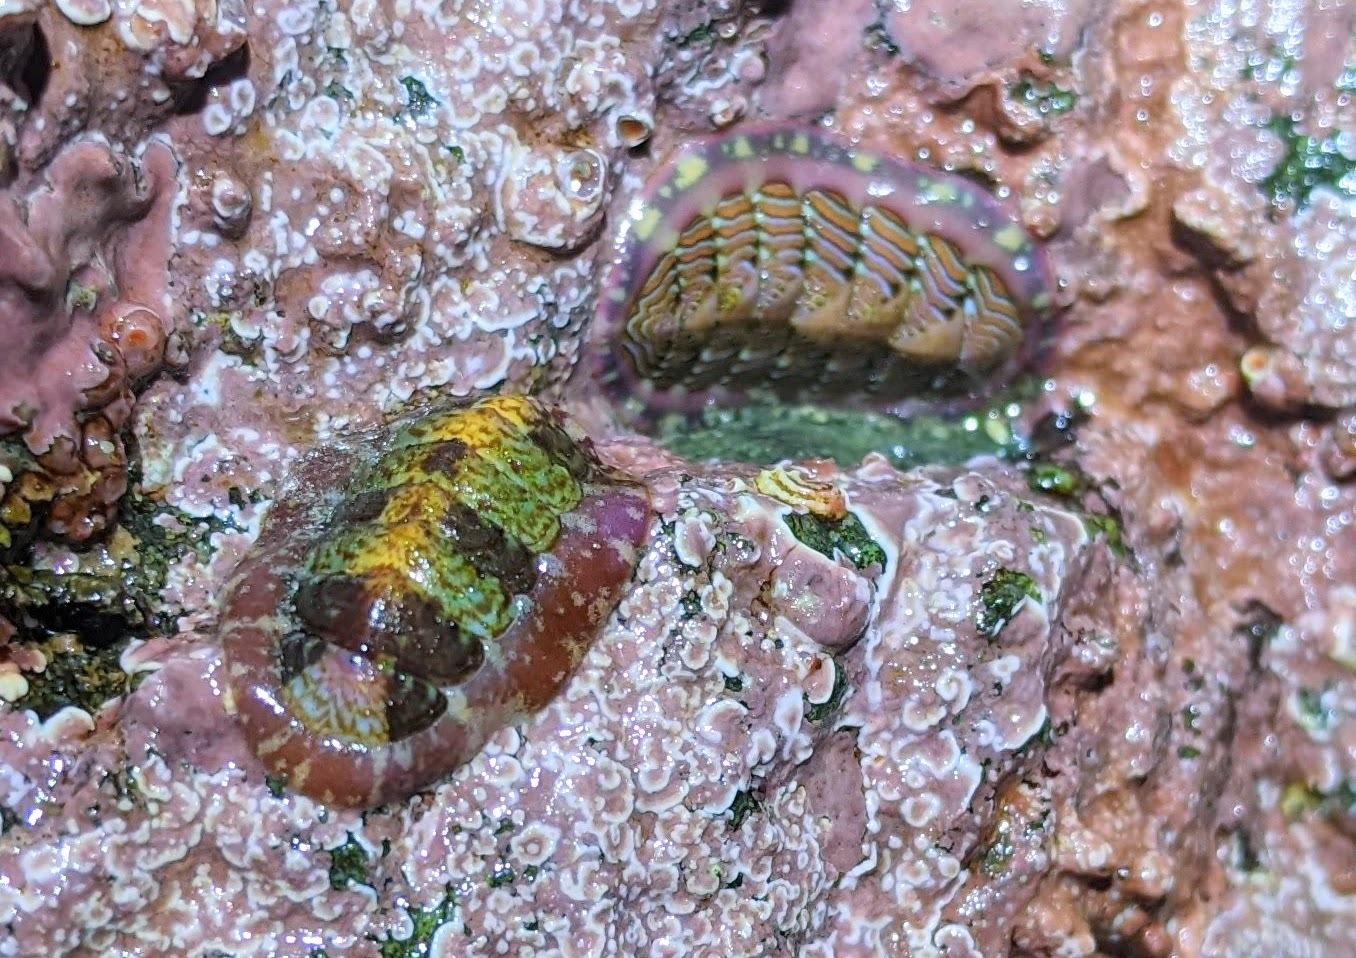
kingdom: Animalia
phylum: Mollusca
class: Polyplacophora
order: Chitonida
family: Tonicellidae
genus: Tonicella
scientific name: Tonicella lineata
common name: Lined chiton
